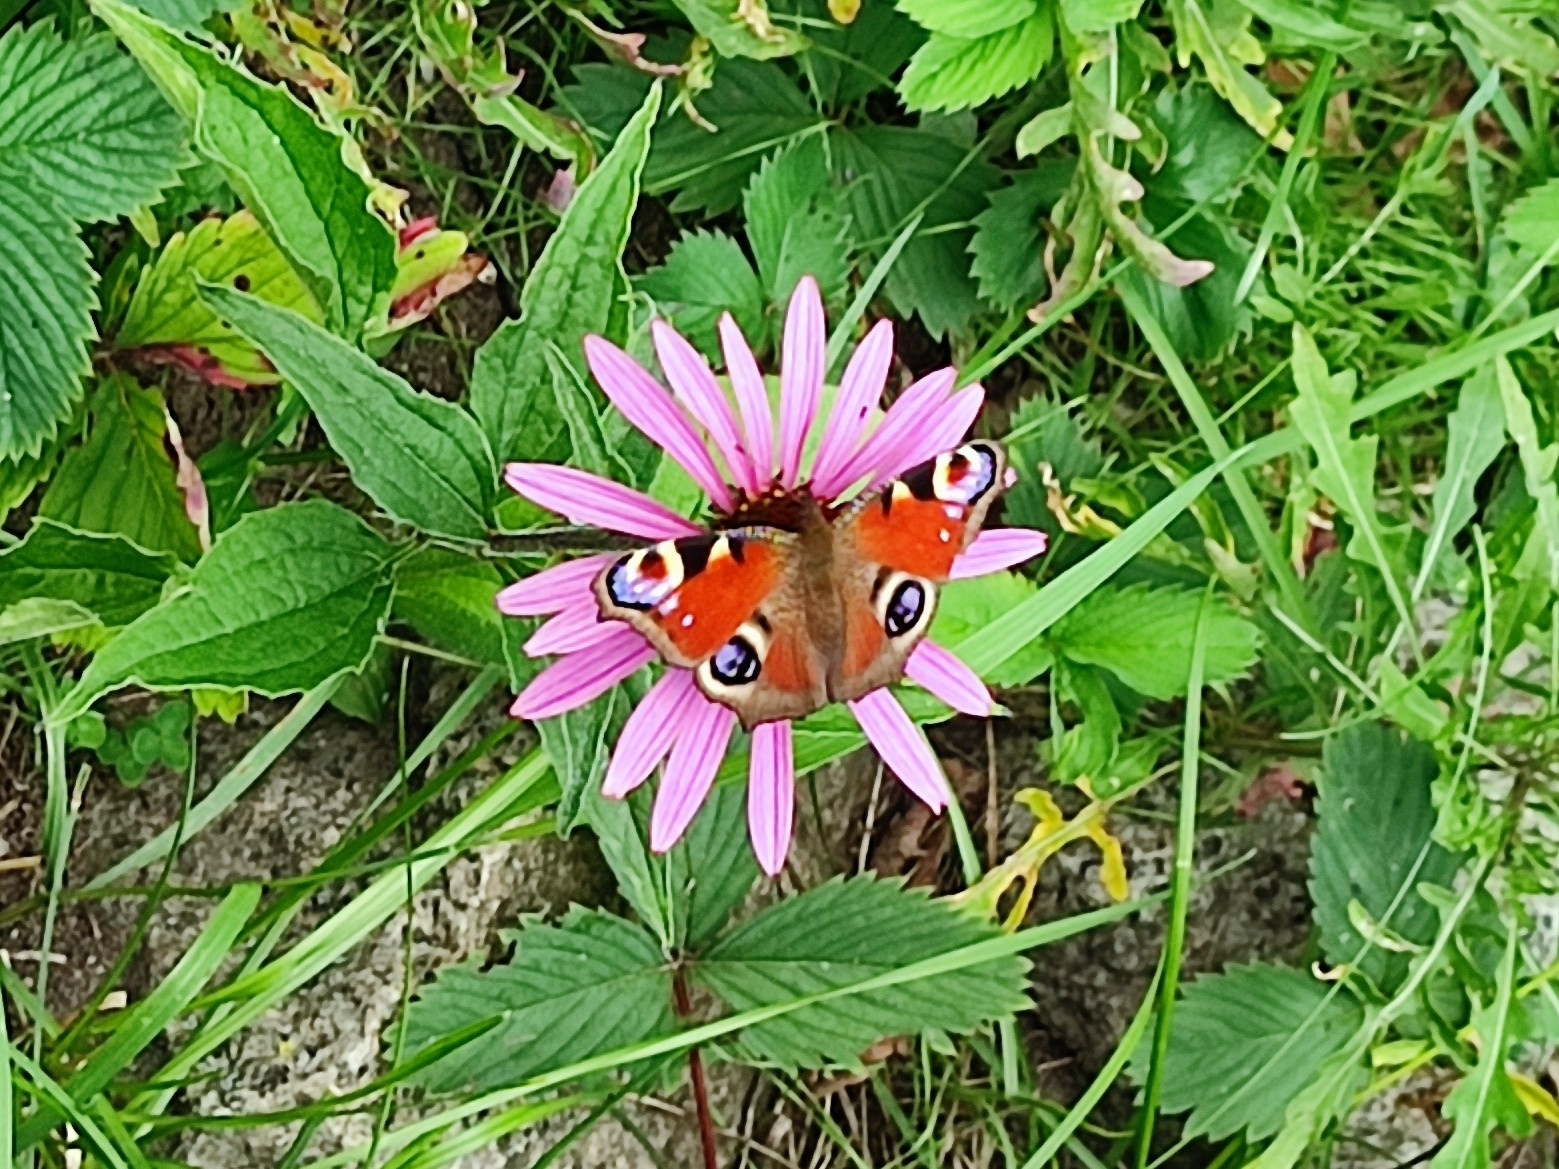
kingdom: Animalia
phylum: Arthropoda
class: Insecta
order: Lepidoptera
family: Nymphalidae
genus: Aglais
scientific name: Aglais io
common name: Peacock
